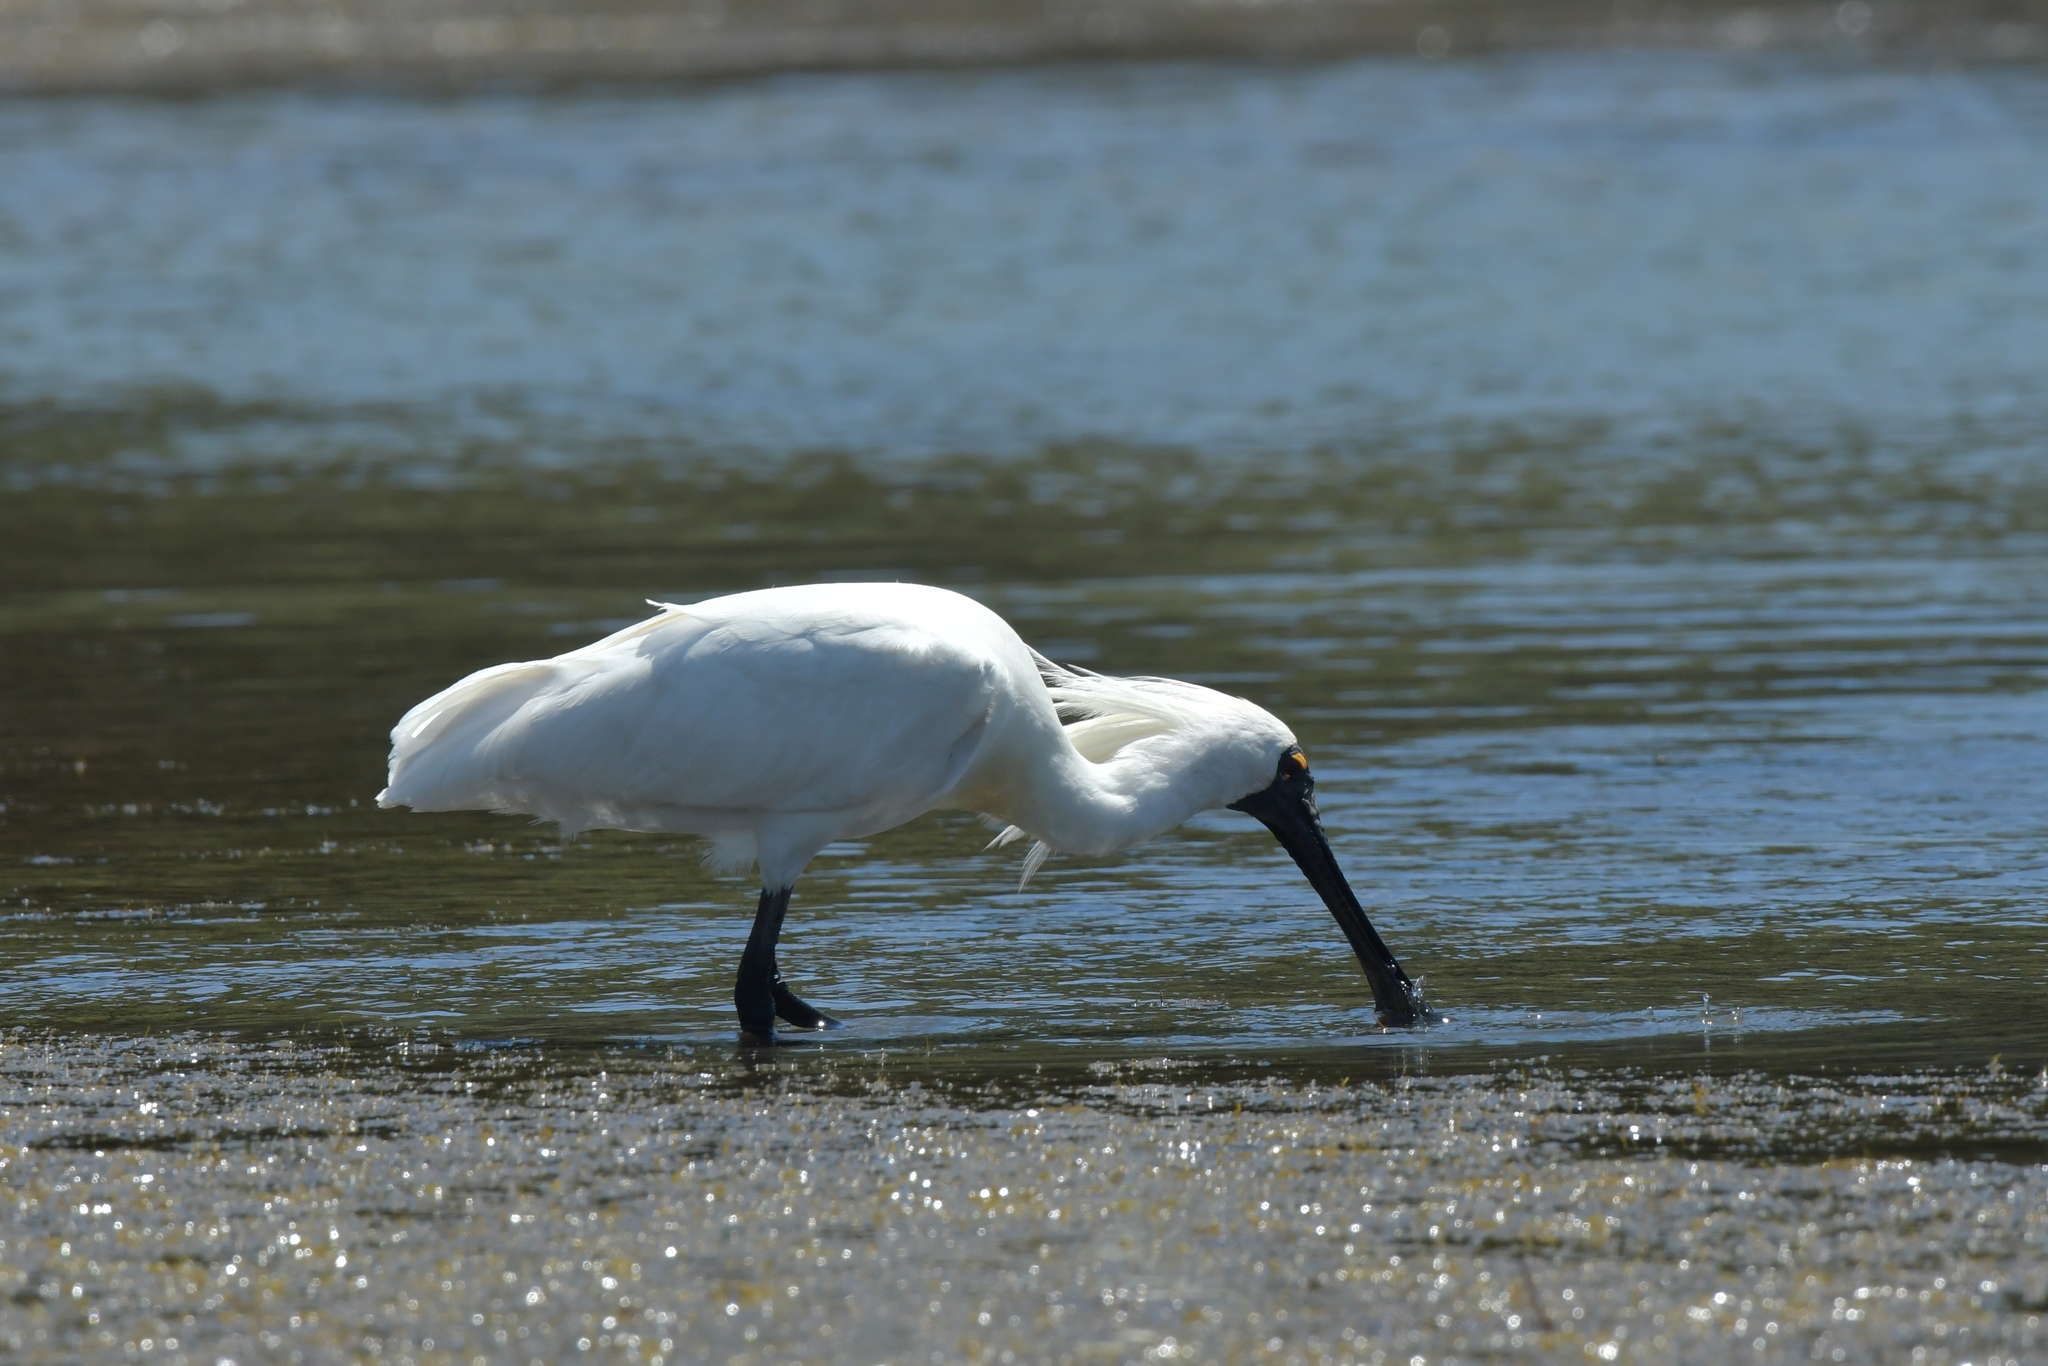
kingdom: Animalia
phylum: Chordata
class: Aves
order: Pelecaniformes
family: Threskiornithidae
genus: Platalea
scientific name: Platalea regia
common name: Royal spoonbill
